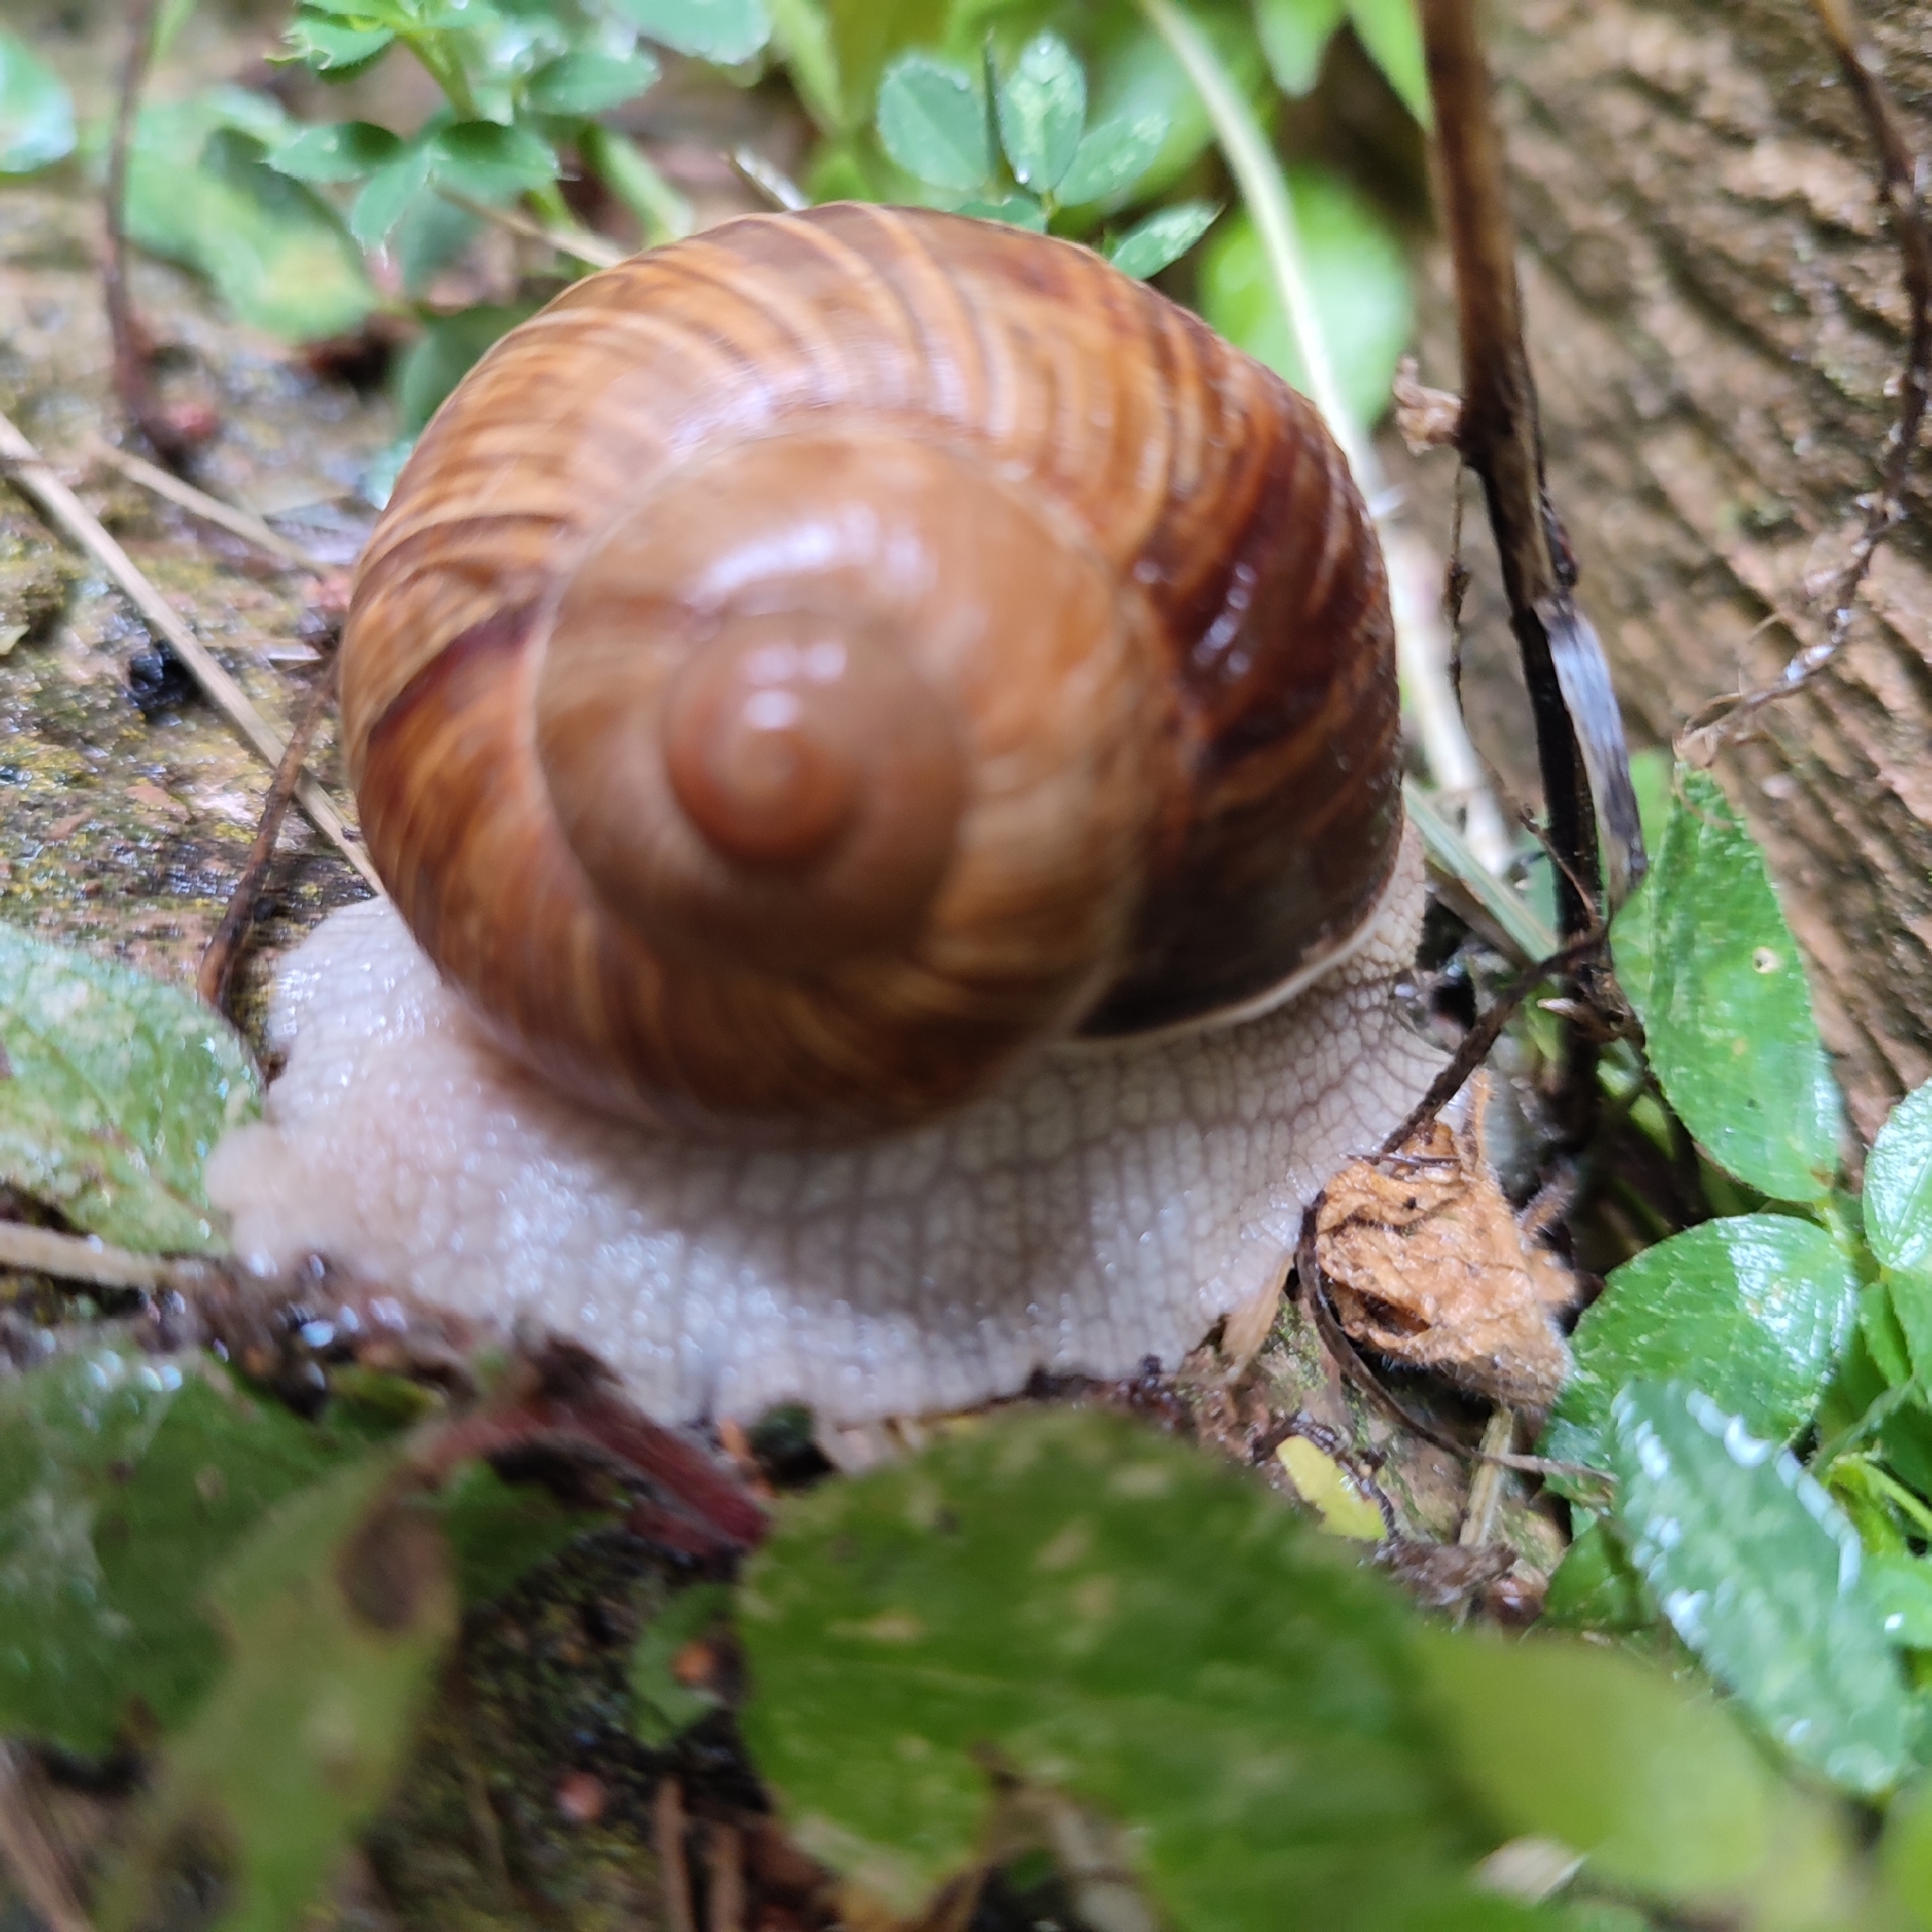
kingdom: Animalia
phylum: Mollusca
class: Gastropoda
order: Stylommatophora
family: Helicidae
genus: Helix
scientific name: Helix pomatia
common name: Roman snail
